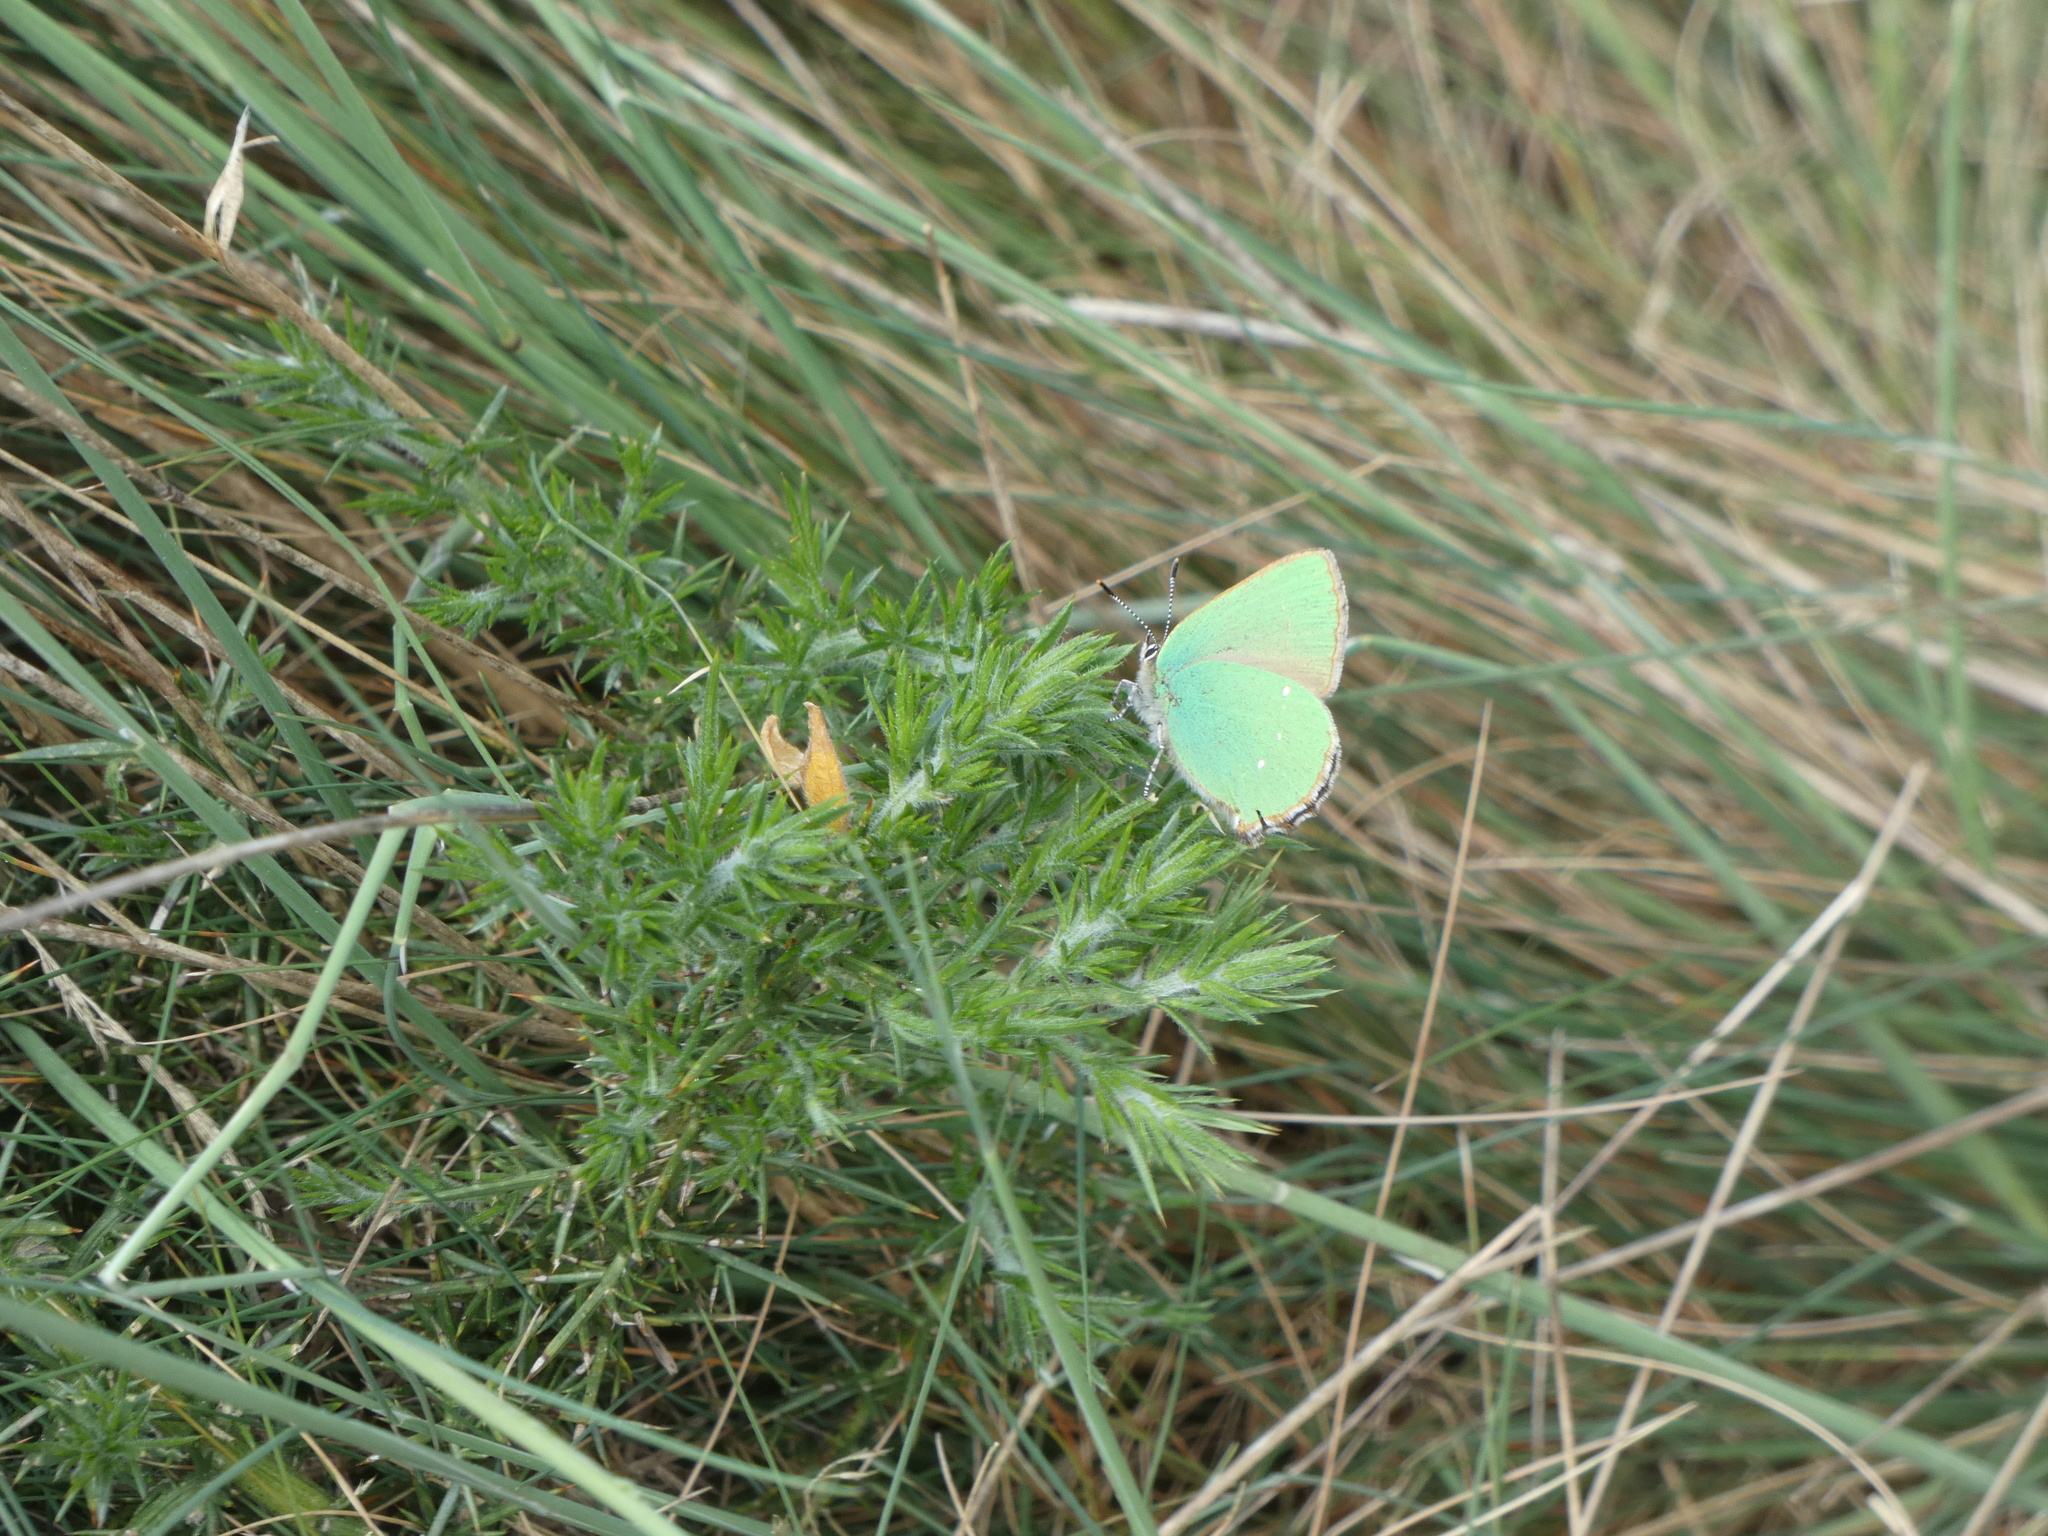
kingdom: Animalia
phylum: Arthropoda
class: Insecta
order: Lepidoptera
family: Lycaenidae
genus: Callophrys
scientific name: Callophrys rubi
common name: Green hairstreak
